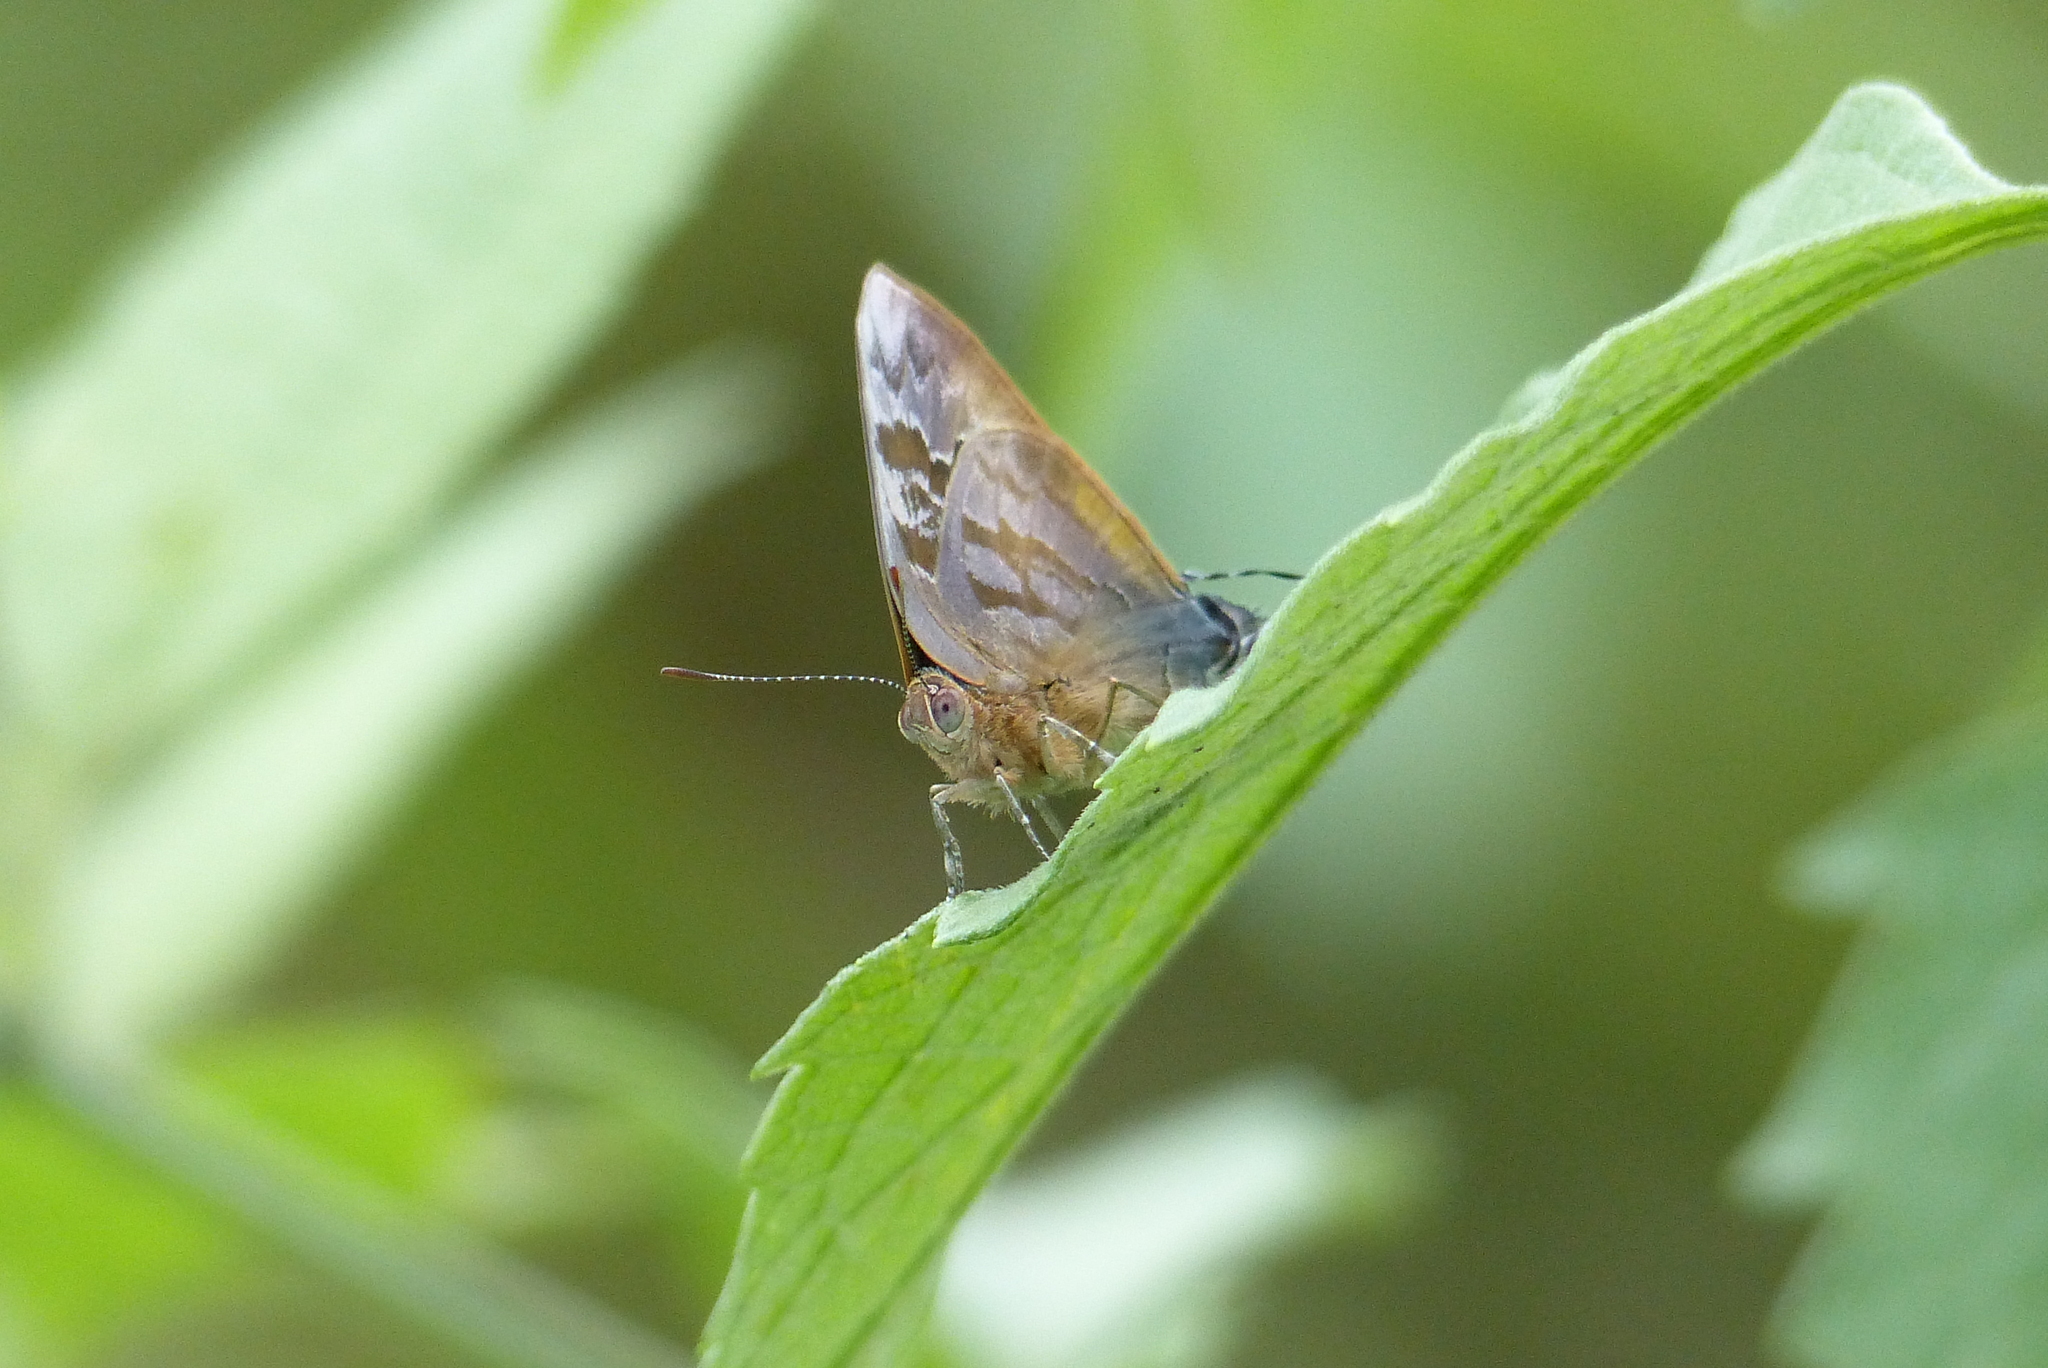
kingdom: Animalia
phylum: Arthropoda
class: Insecta
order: Lepidoptera
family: Lycaenidae
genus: Rekoa
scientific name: Rekoa palegon
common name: Gold-bordered hairstreak
